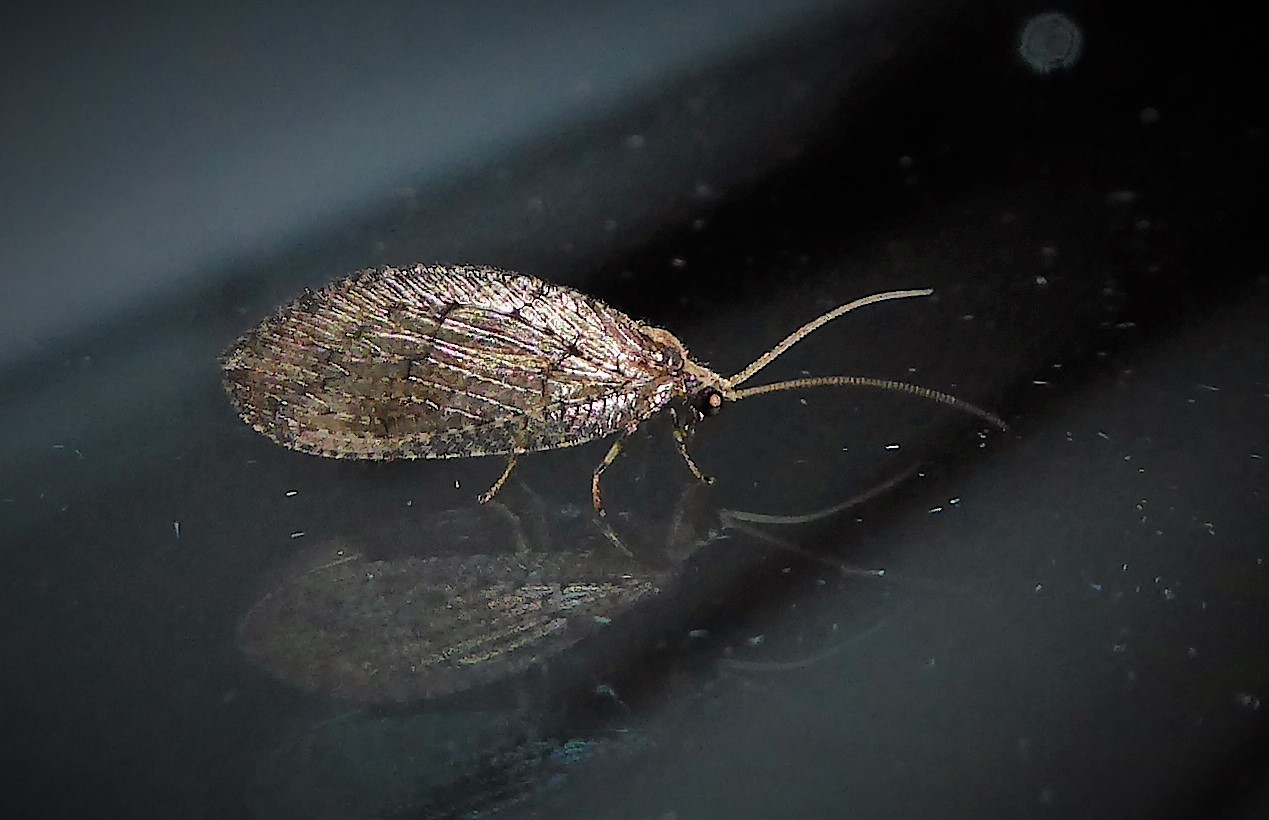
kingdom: Animalia
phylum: Arthropoda
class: Insecta
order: Neuroptera
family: Hemerobiidae
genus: Wesmaelius
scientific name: Wesmaelius subnebulosus
